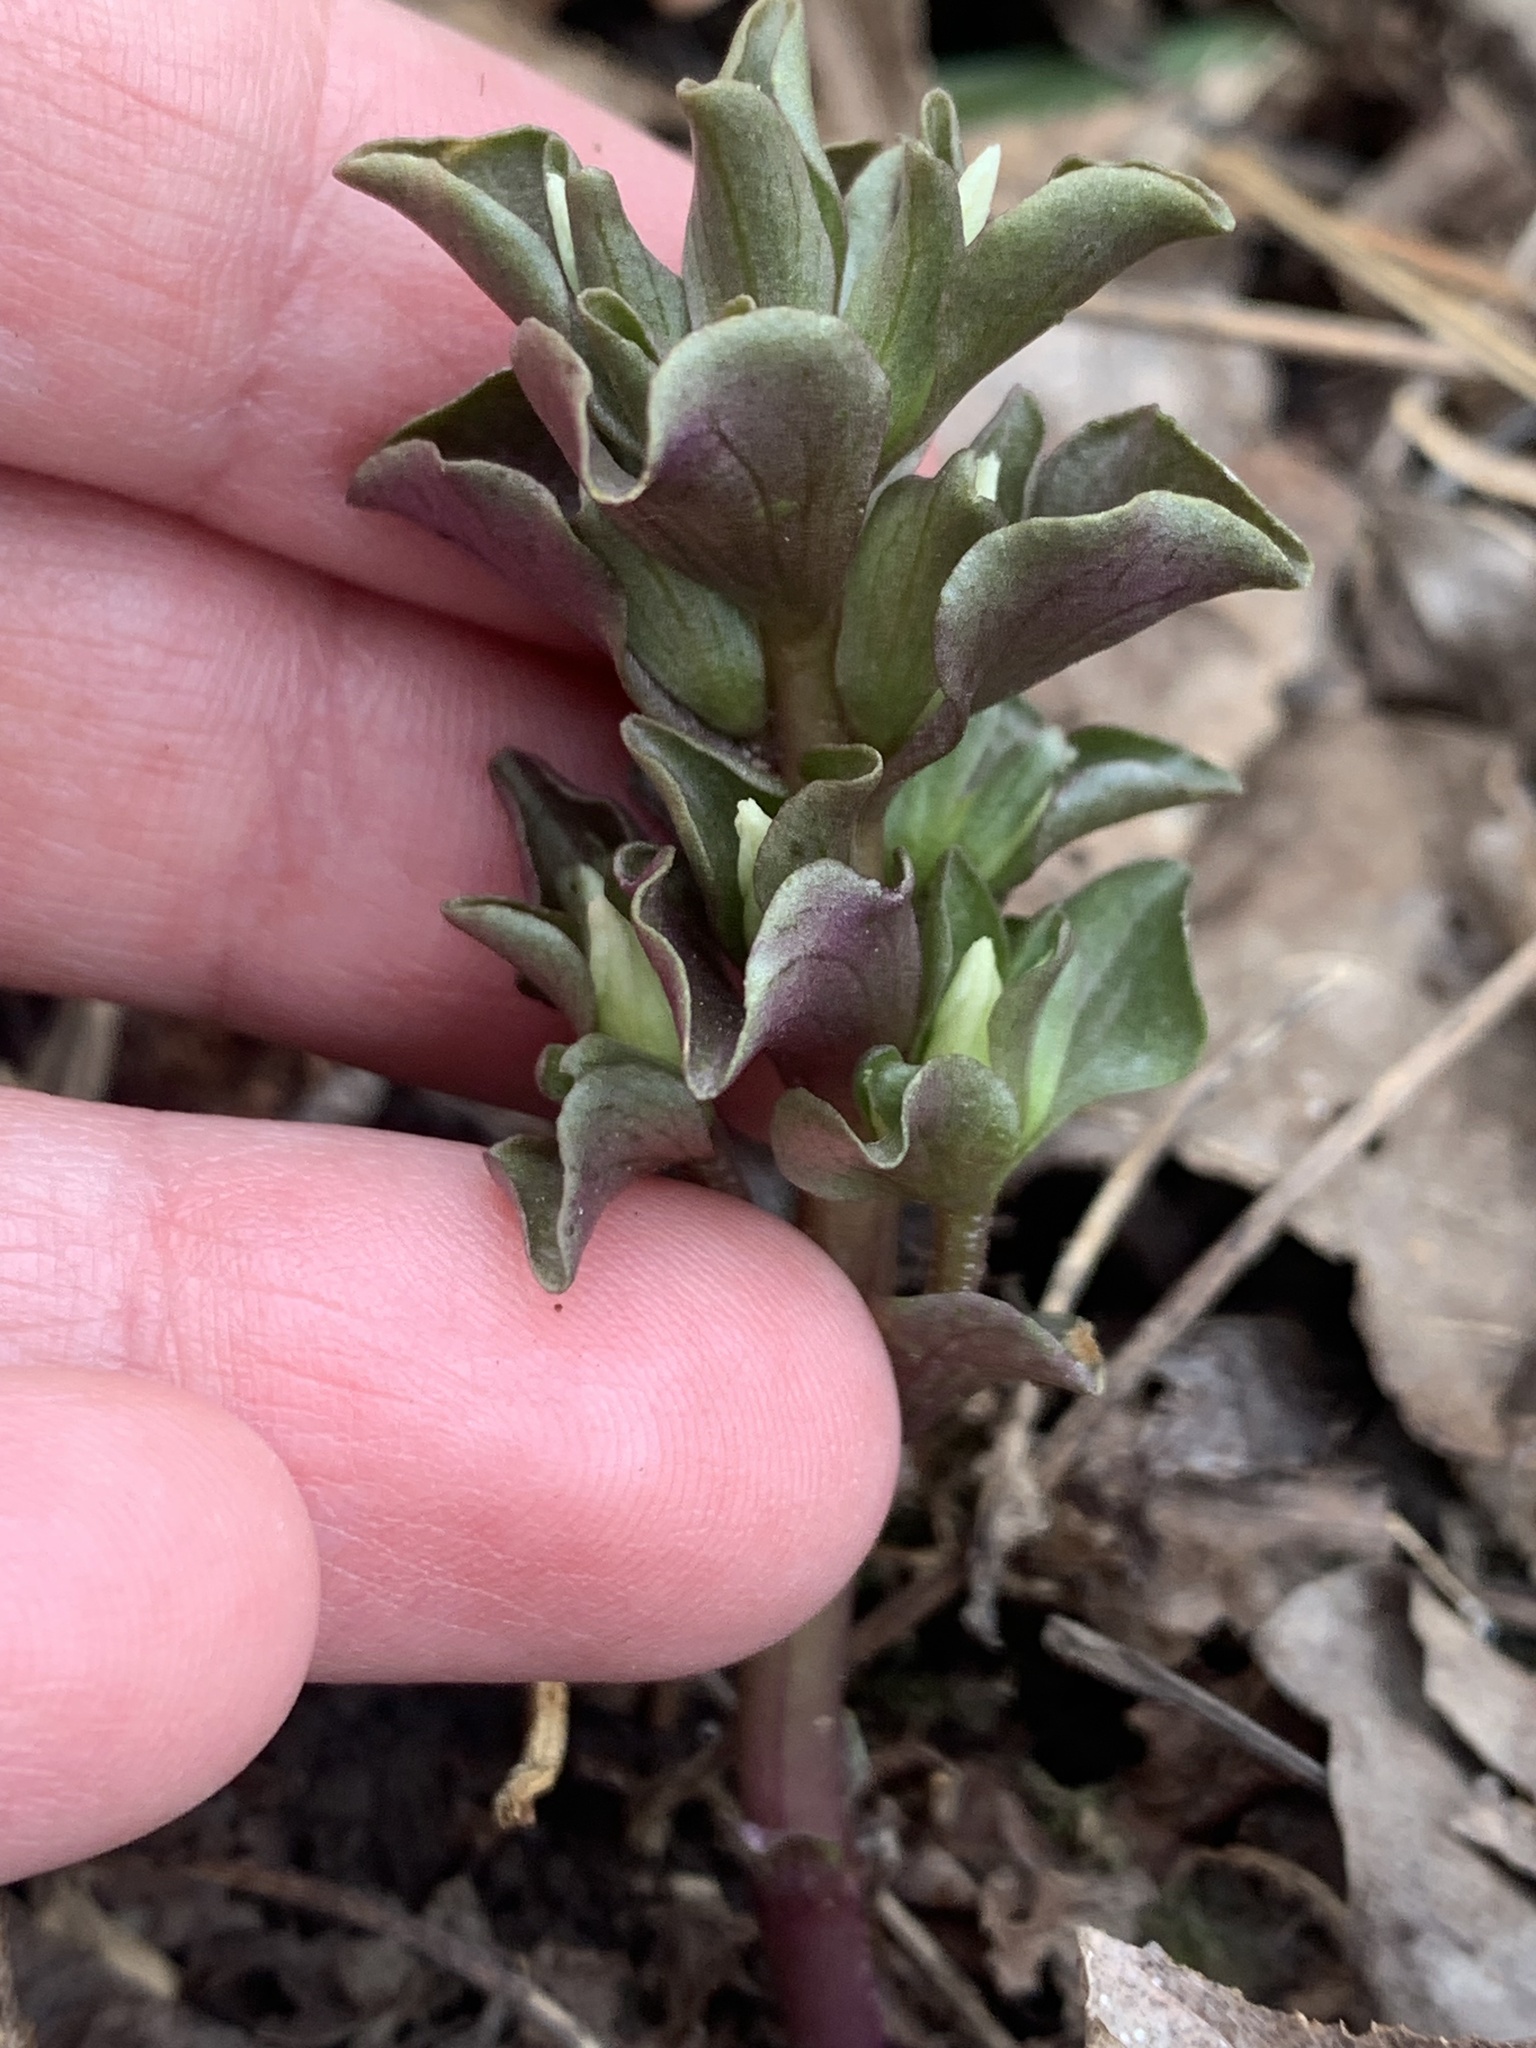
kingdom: Plantae
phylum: Tracheophyta
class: Magnoliopsida
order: Gentianales
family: Gentianaceae
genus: Obolaria
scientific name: Obolaria virginica
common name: Pennywort
